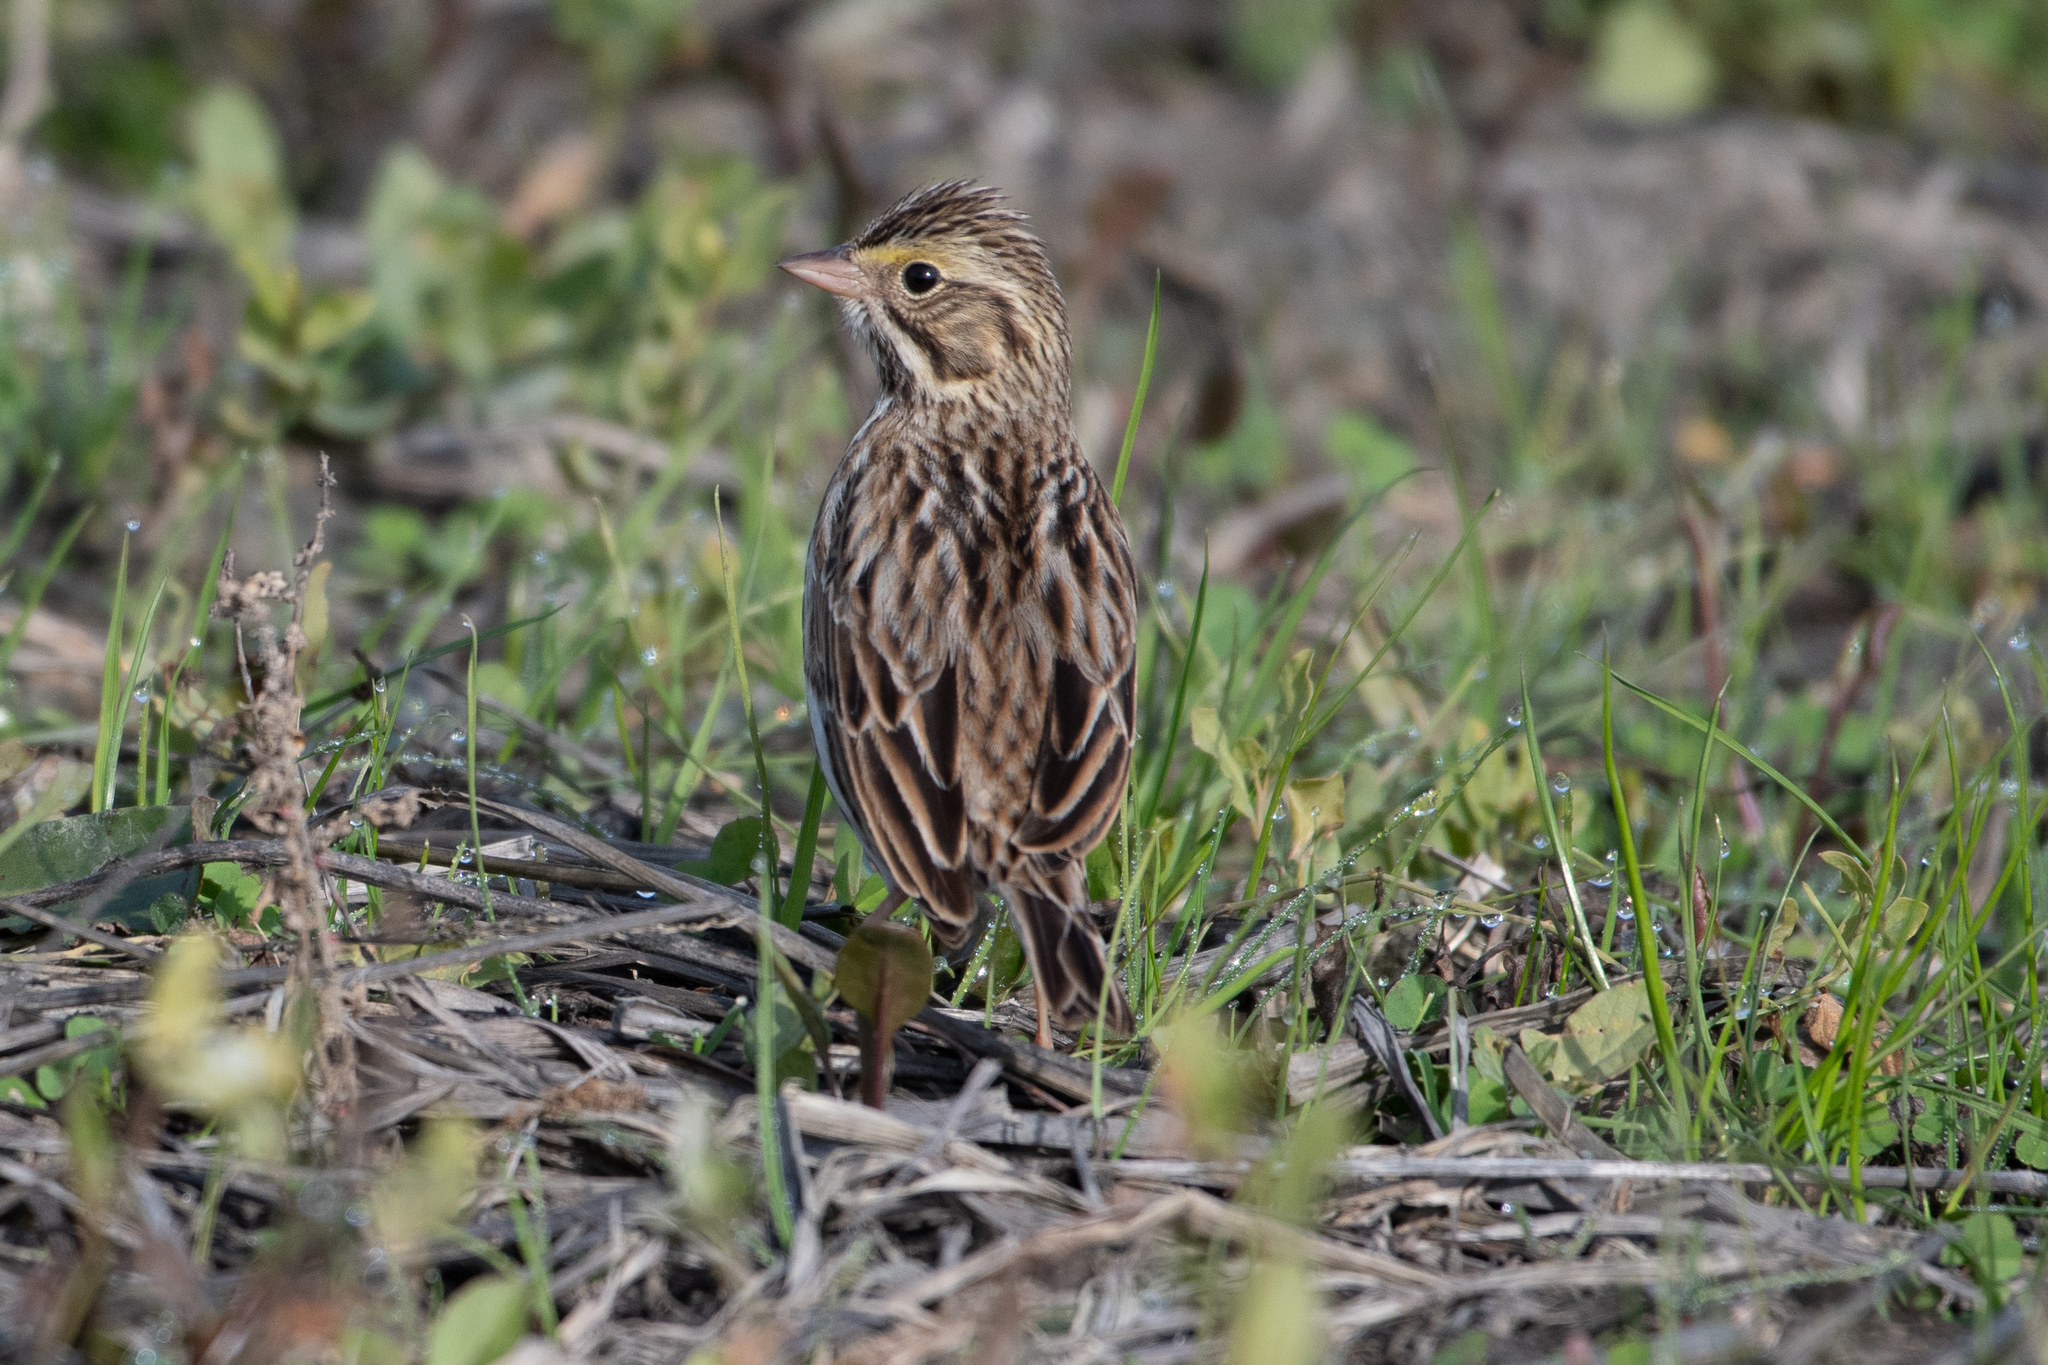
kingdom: Animalia
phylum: Chordata
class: Aves
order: Passeriformes
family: Passerellidae
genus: Passerculus
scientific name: Passerculus sandwichensis
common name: Savannah sparrow
